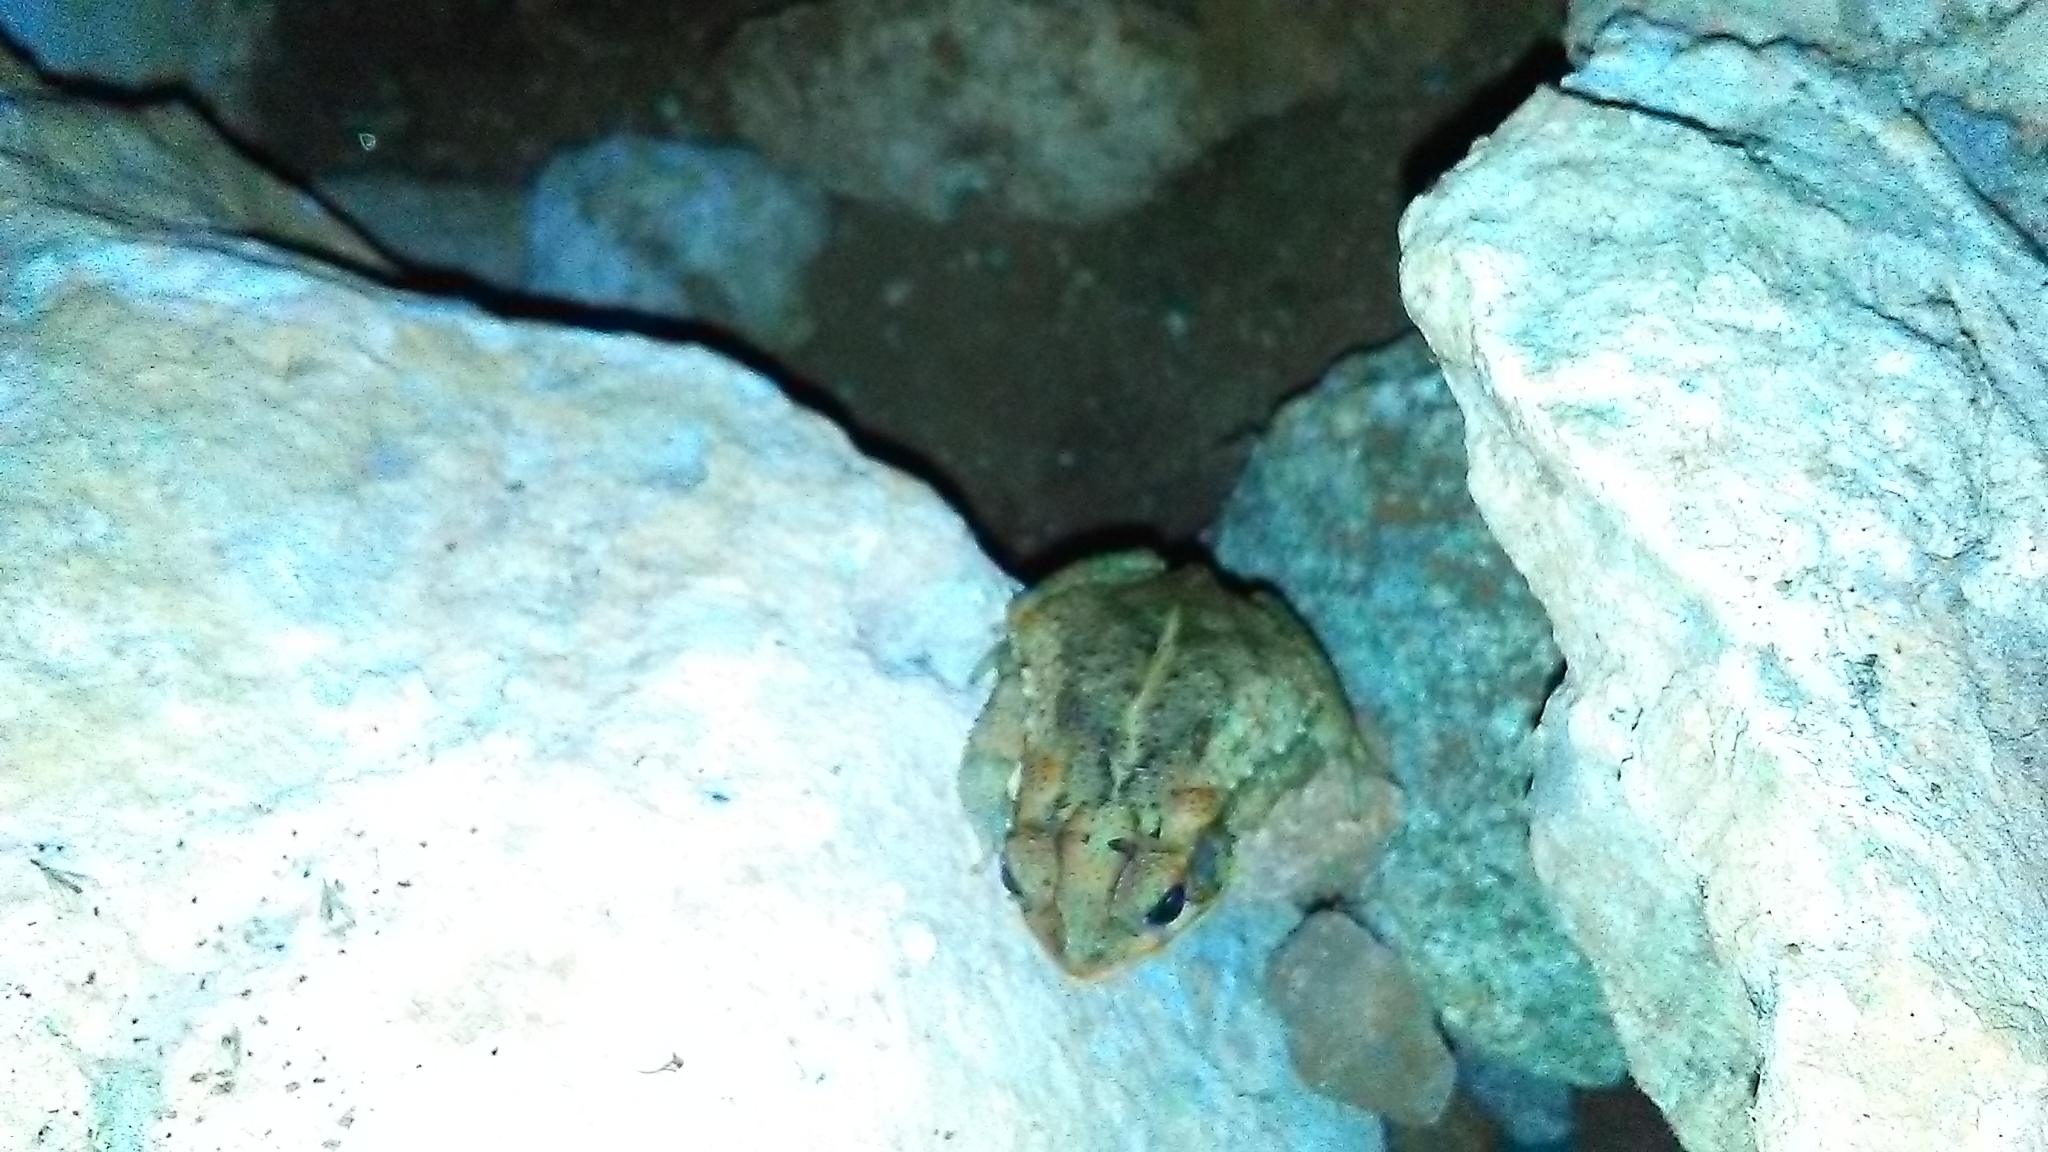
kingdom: Animalia
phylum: Chordata
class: Amphibia
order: Anura
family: Bufonidae
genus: Incilius
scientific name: Incilius valliceps
